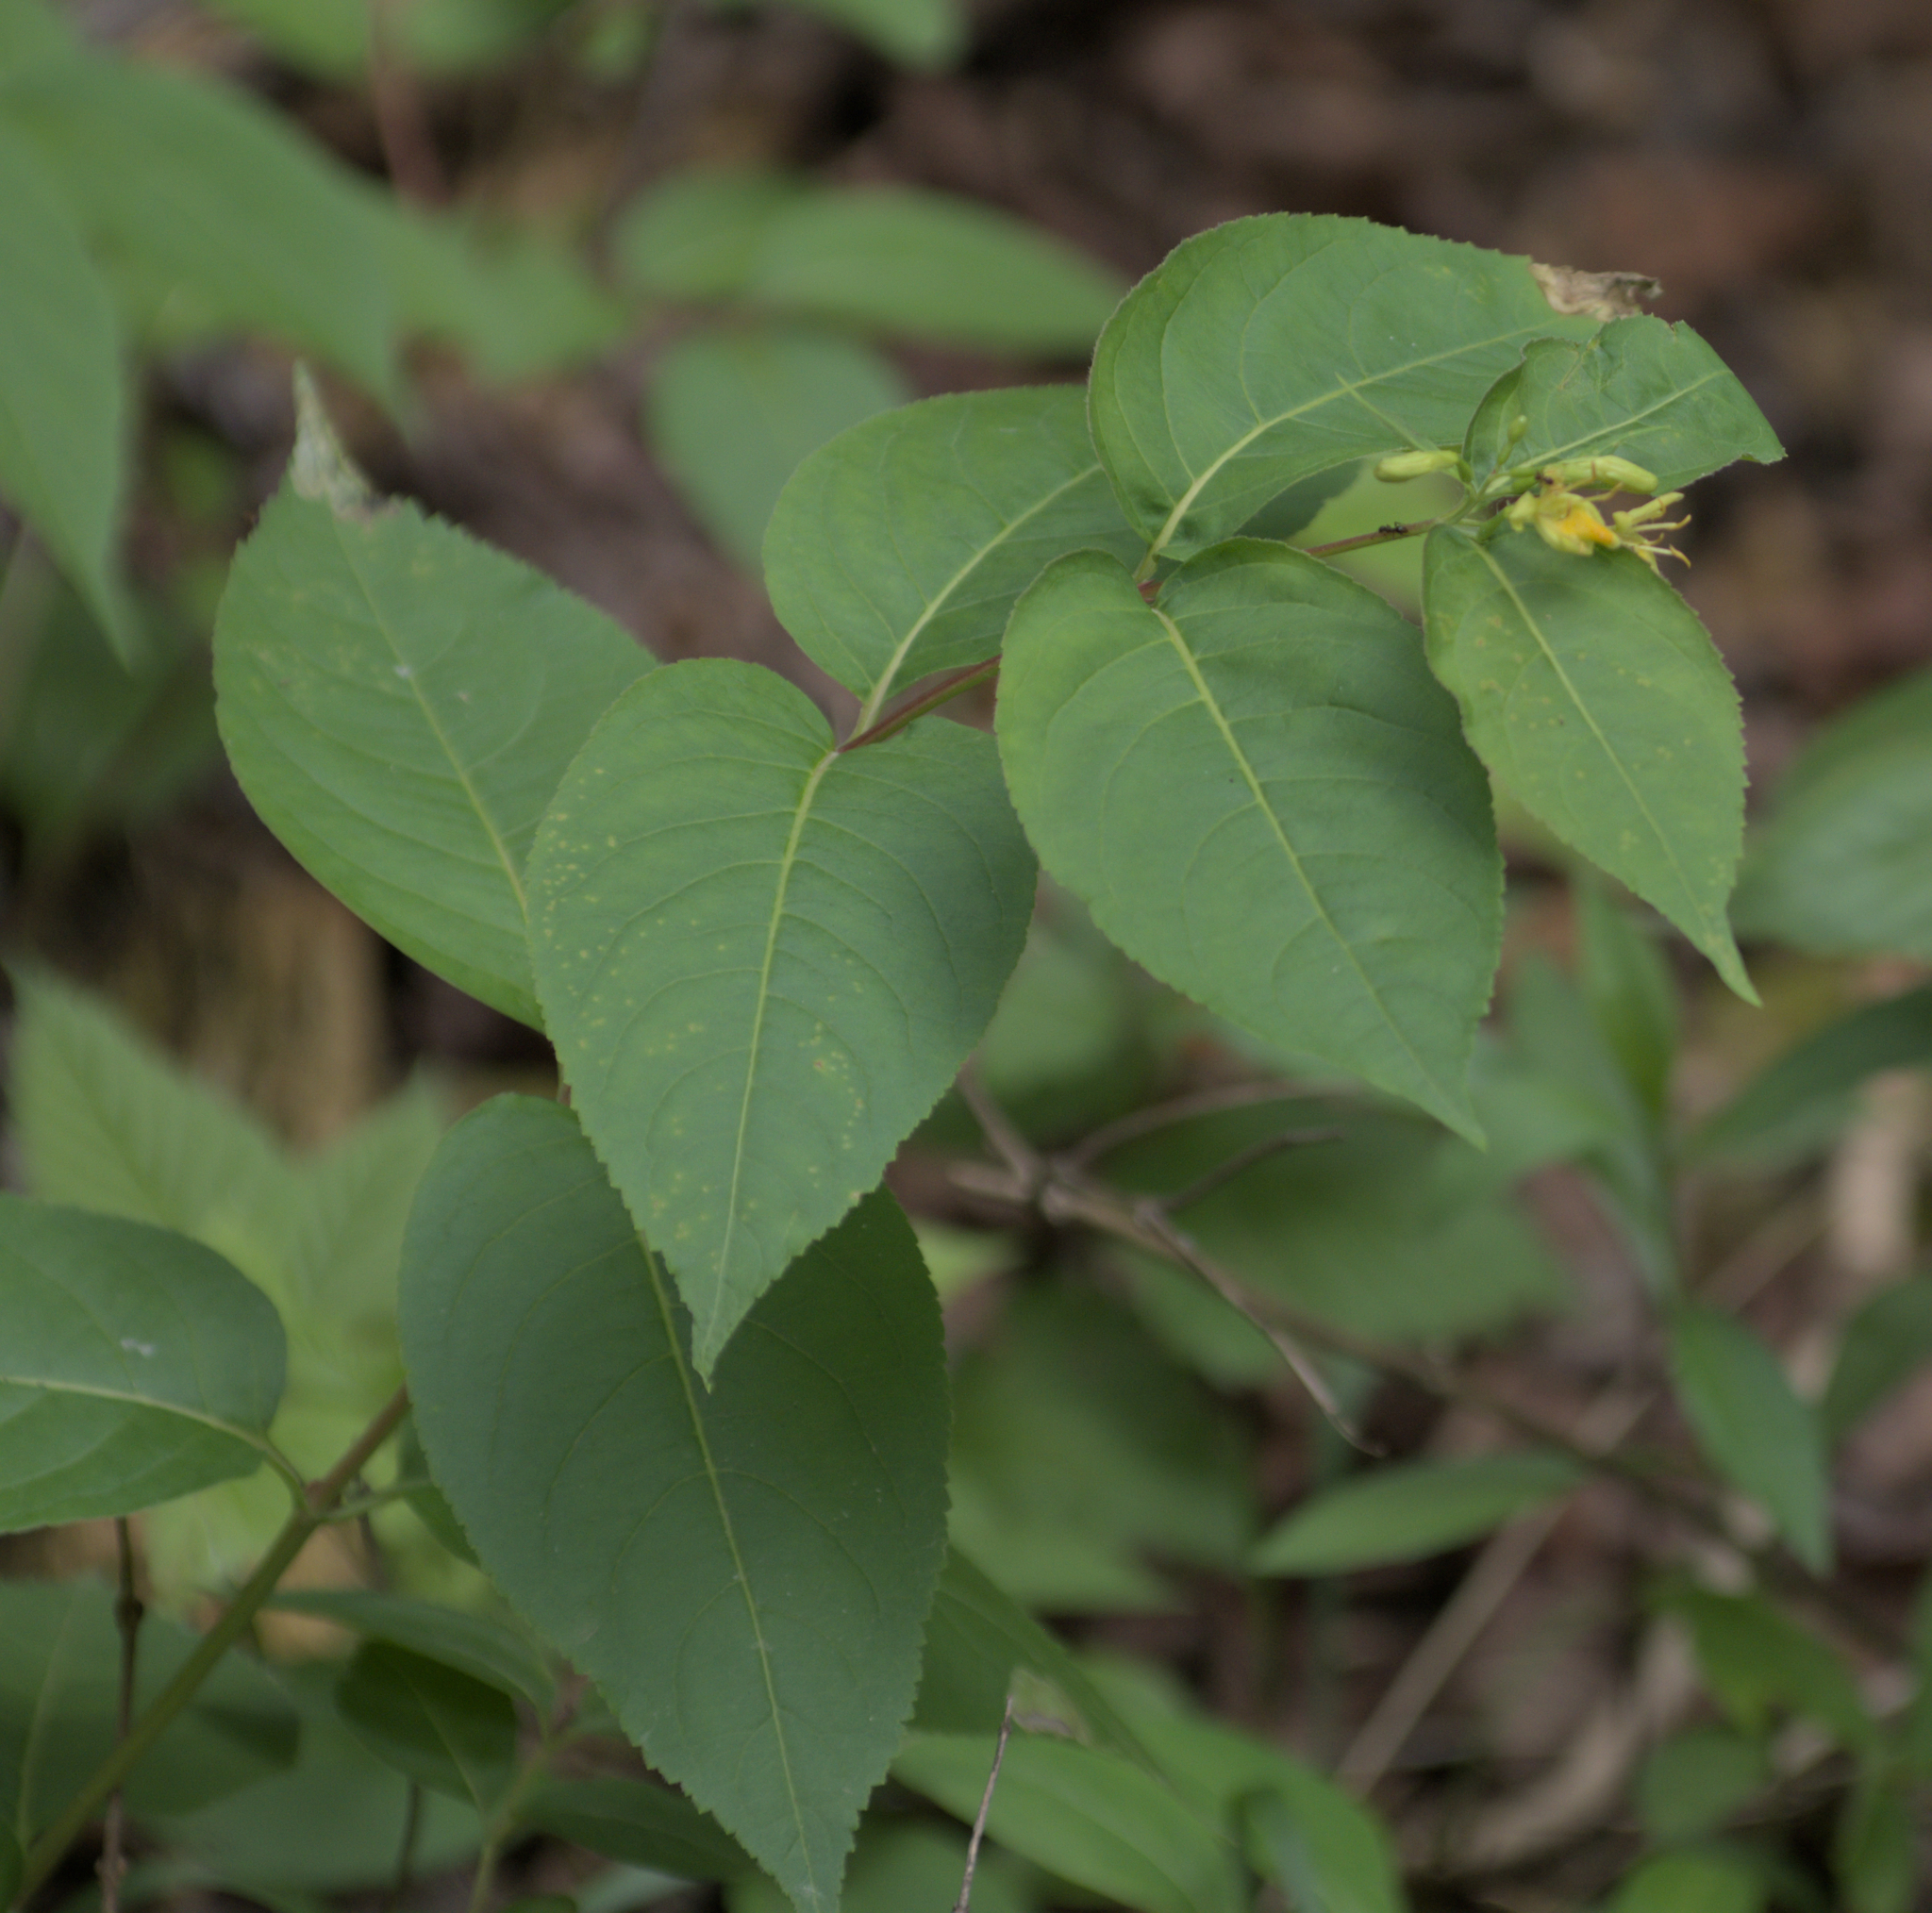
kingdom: Plantae
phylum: Tracheophyta
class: Magnoliopsida
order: Dipsacales
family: Caprifoliaceae
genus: Diervilla
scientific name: Diervilla lonicera
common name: Bush-honeysuckle
